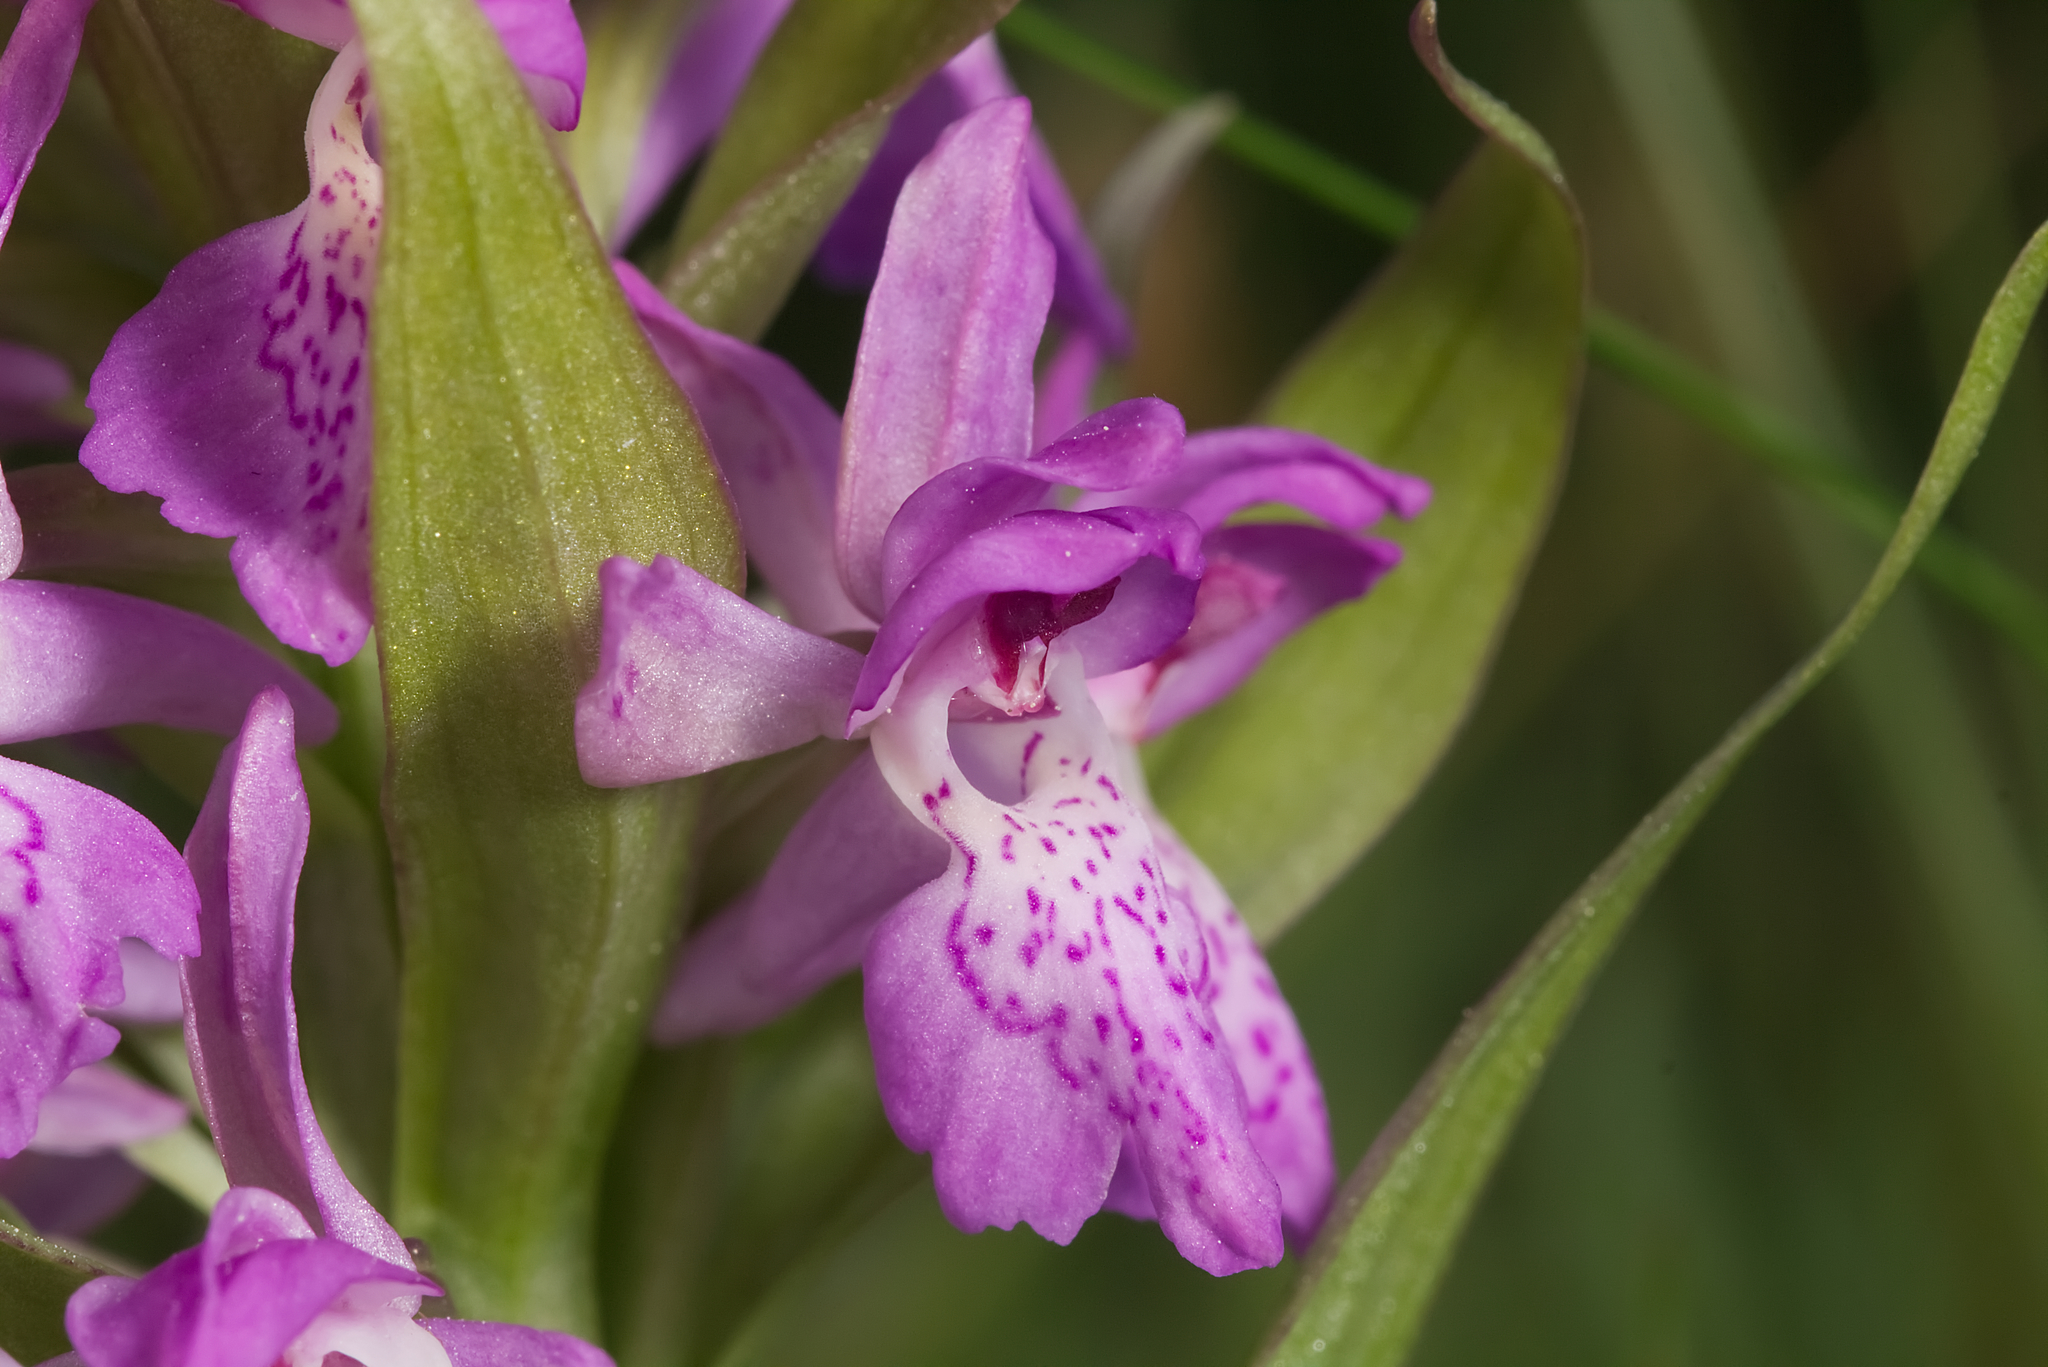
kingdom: Plantae
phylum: Tracheophyta
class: Liliopsida
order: Asparagales
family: Orchidaceae
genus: Dactylorhiza
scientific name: Dactylorhiza majalis
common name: Marsh orchid
